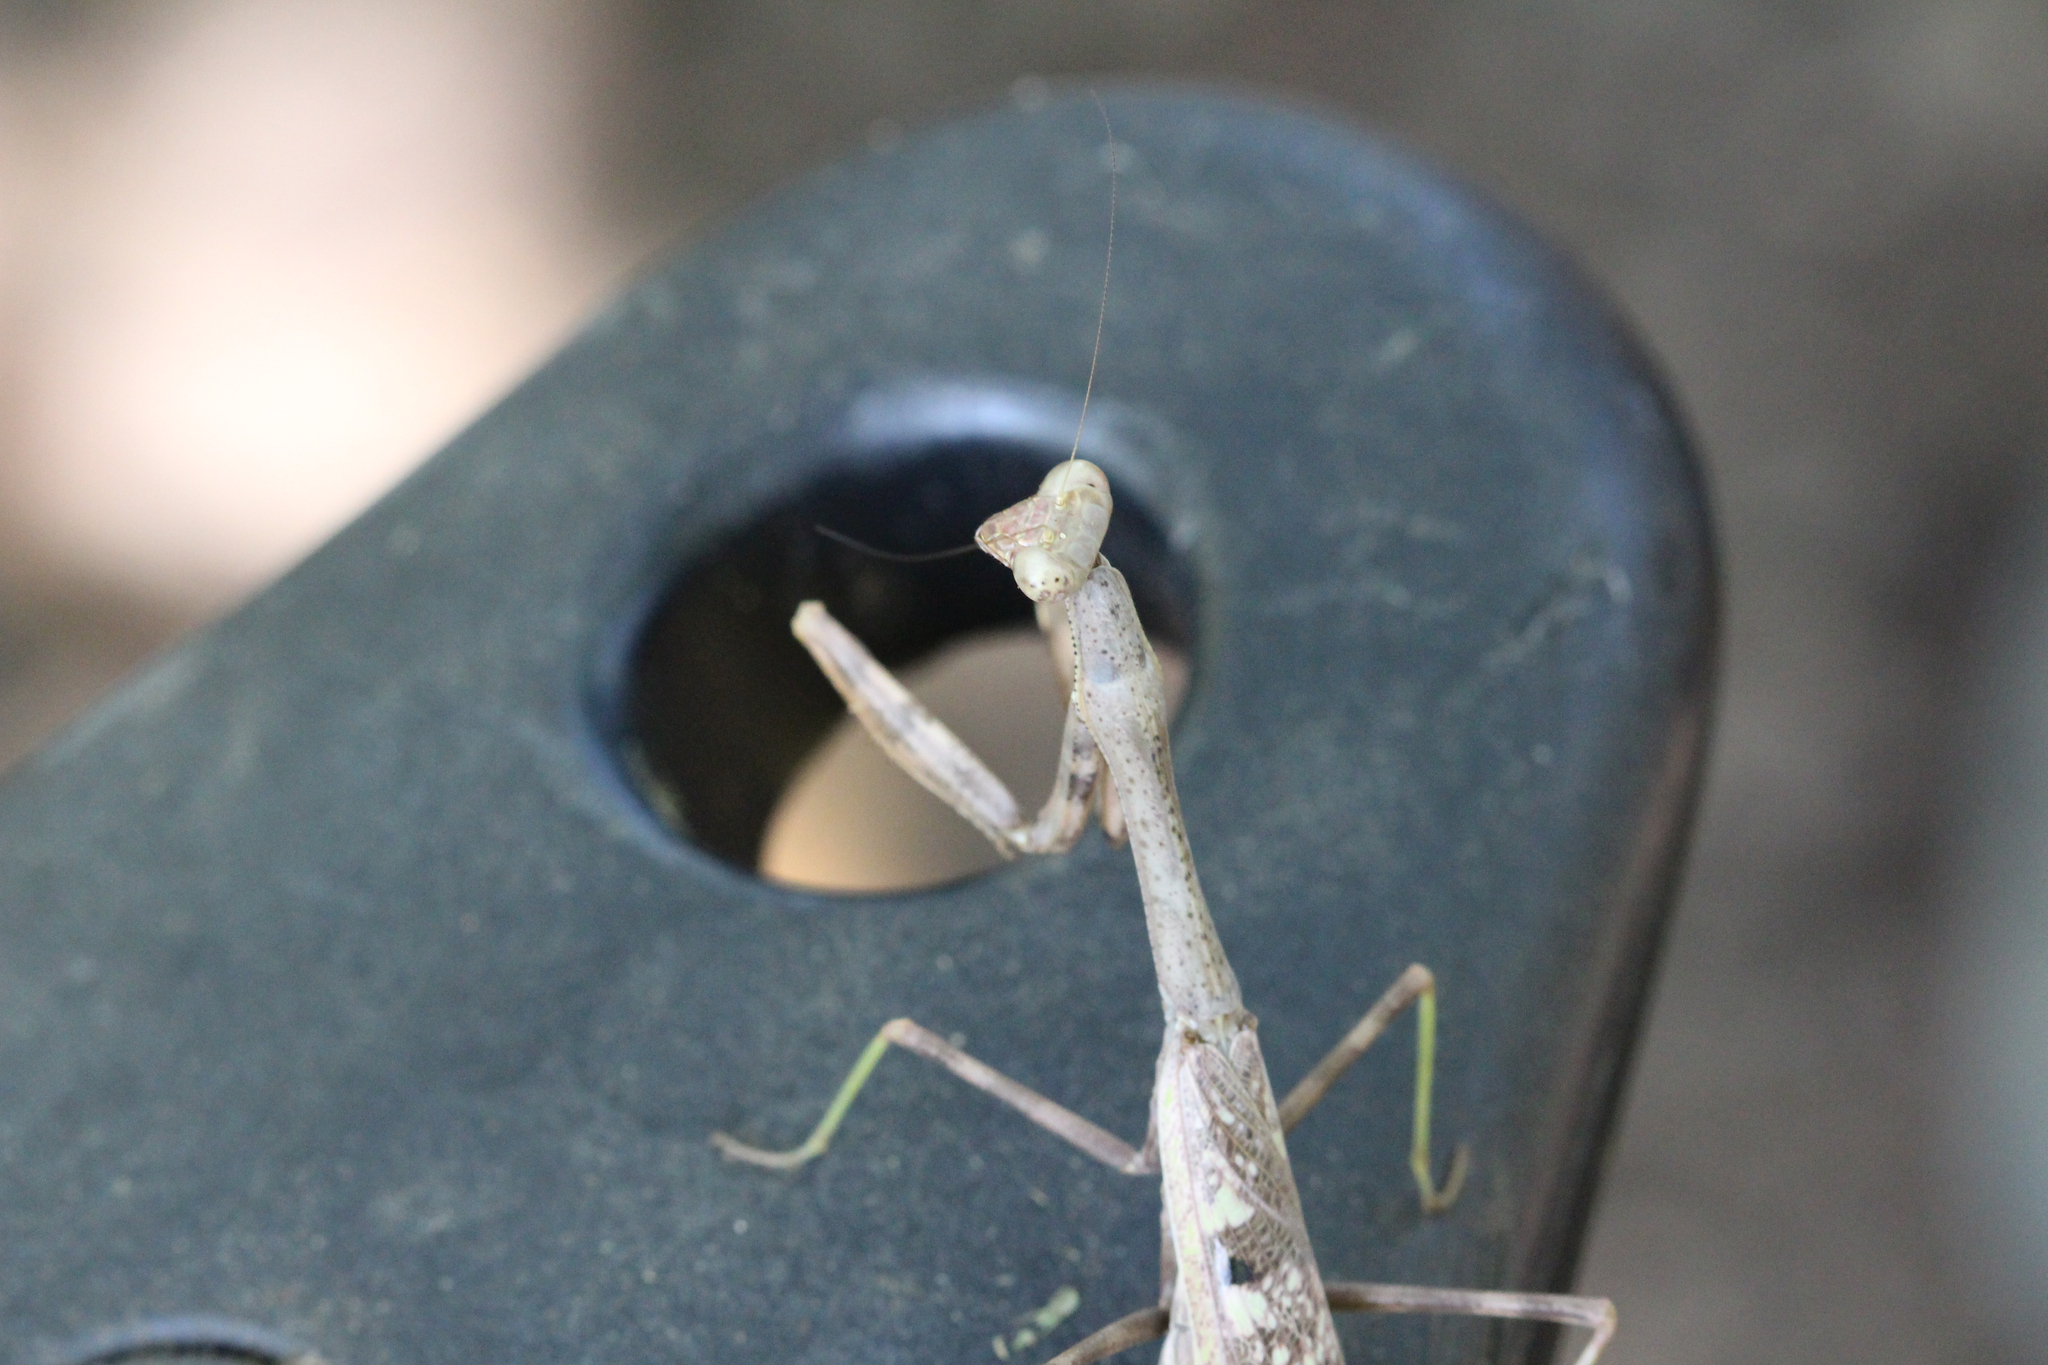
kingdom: Animalia
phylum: Arthropoda
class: Insecta
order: Mantodea
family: Mantidae
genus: Stagmomantis
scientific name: Stagmomantis carolina
